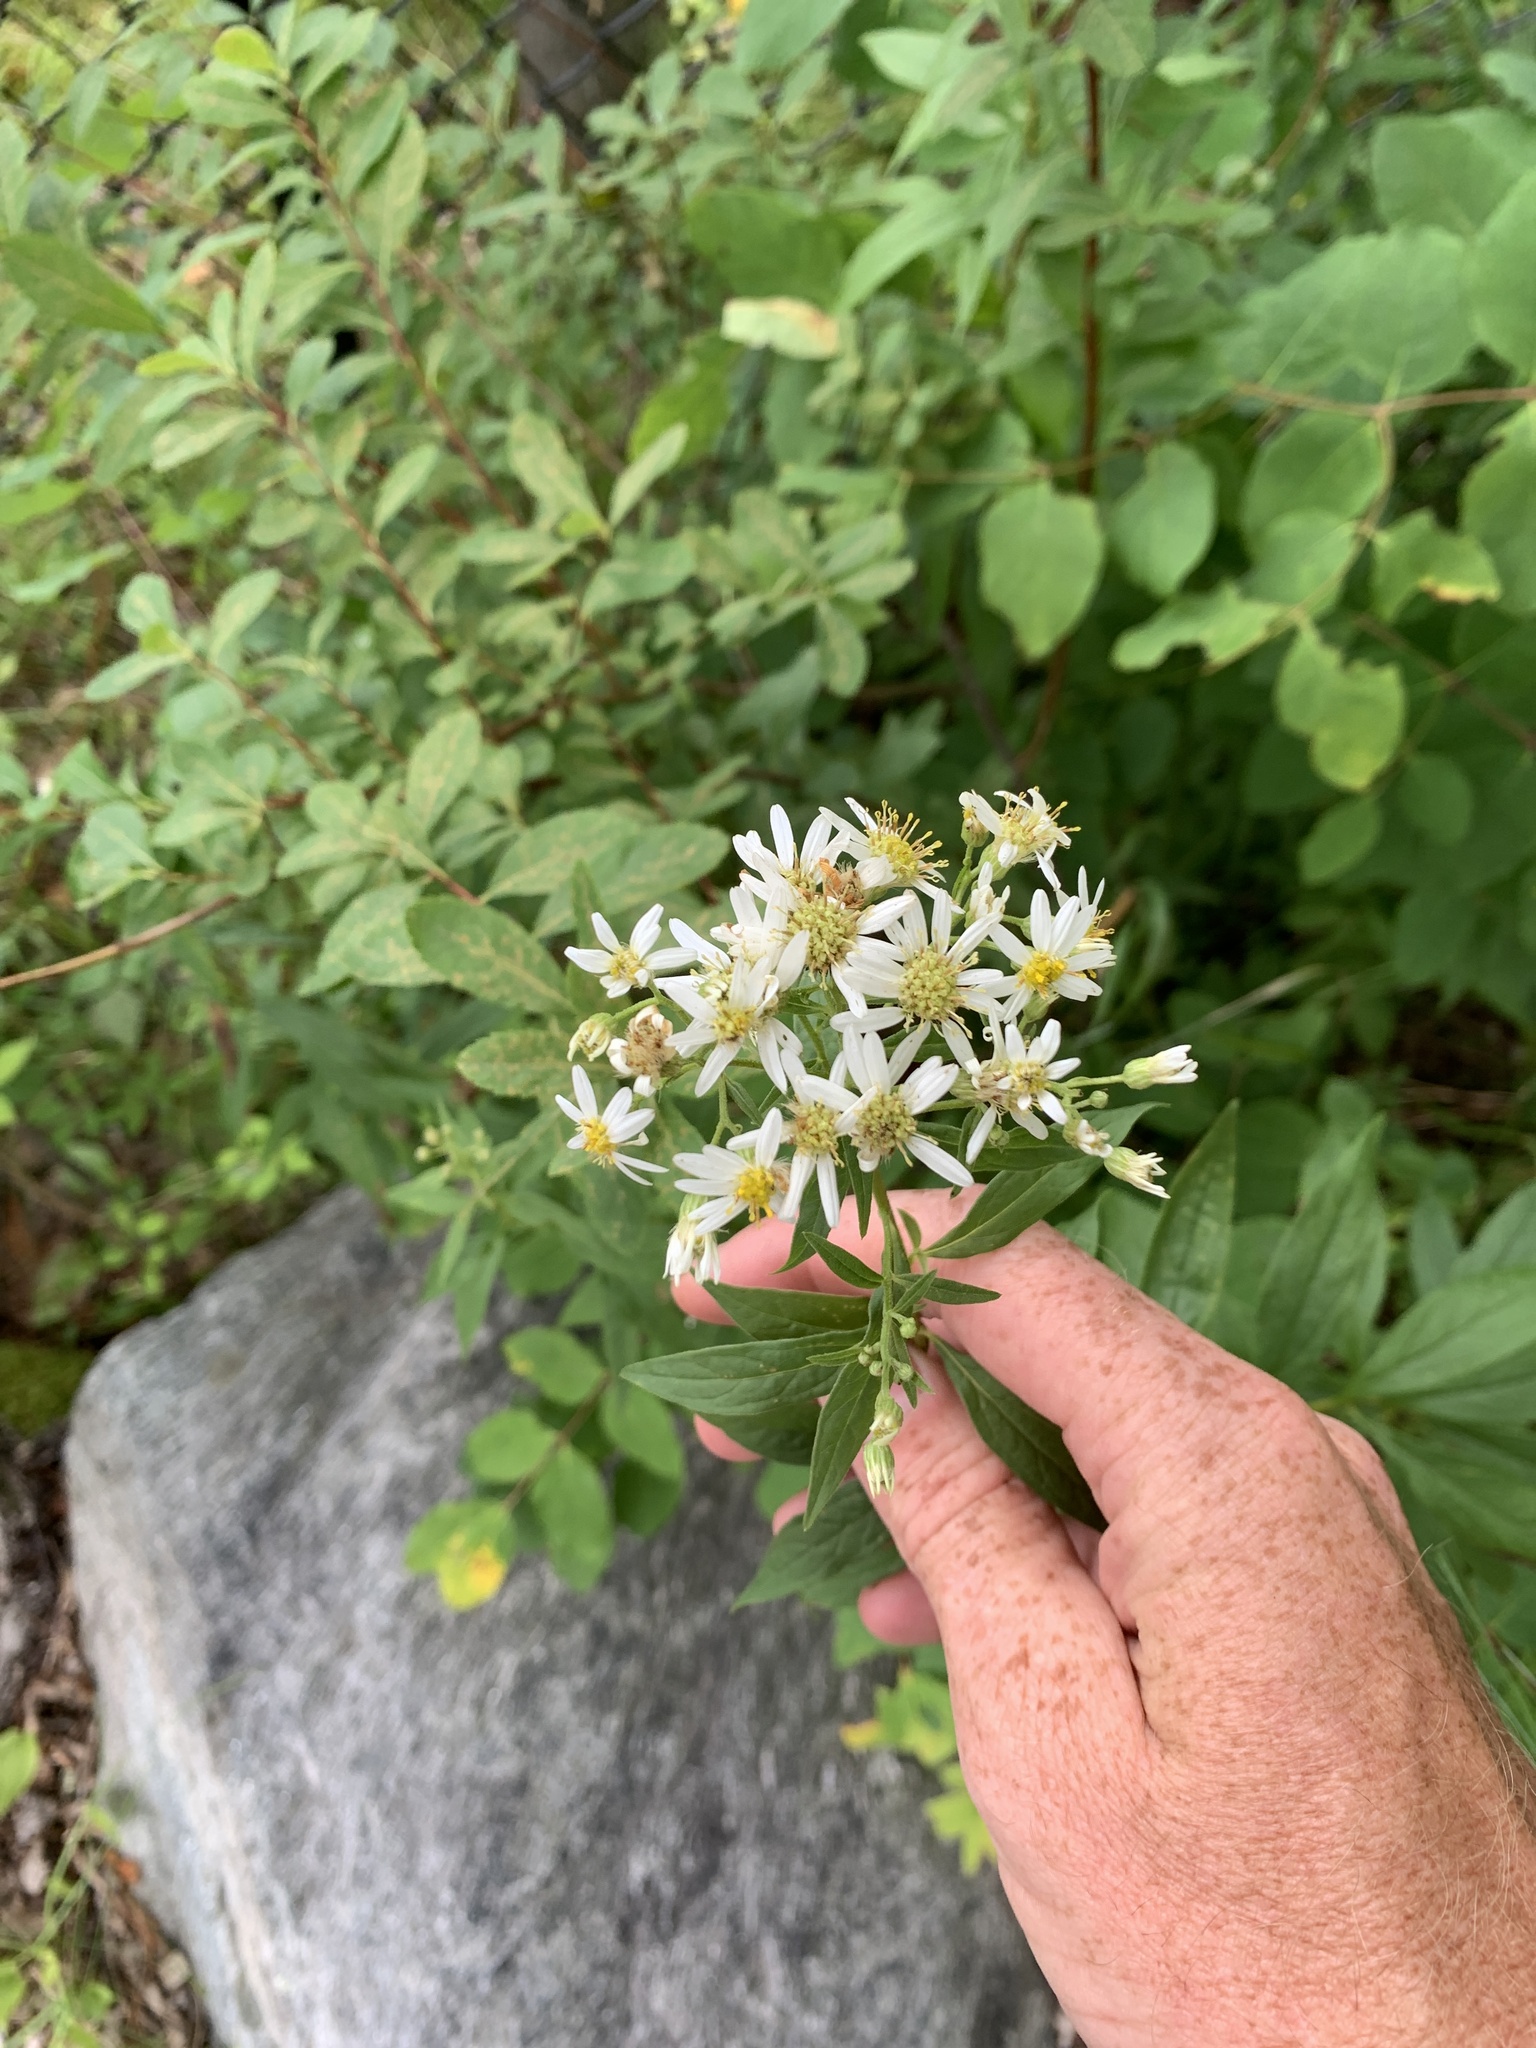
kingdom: Plantae
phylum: Tracheophyta
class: Magnoliopsida
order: Asterales
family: Asteraceae
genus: Doellingeria
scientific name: Doellingeria umbellata
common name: Flat-top white aster
